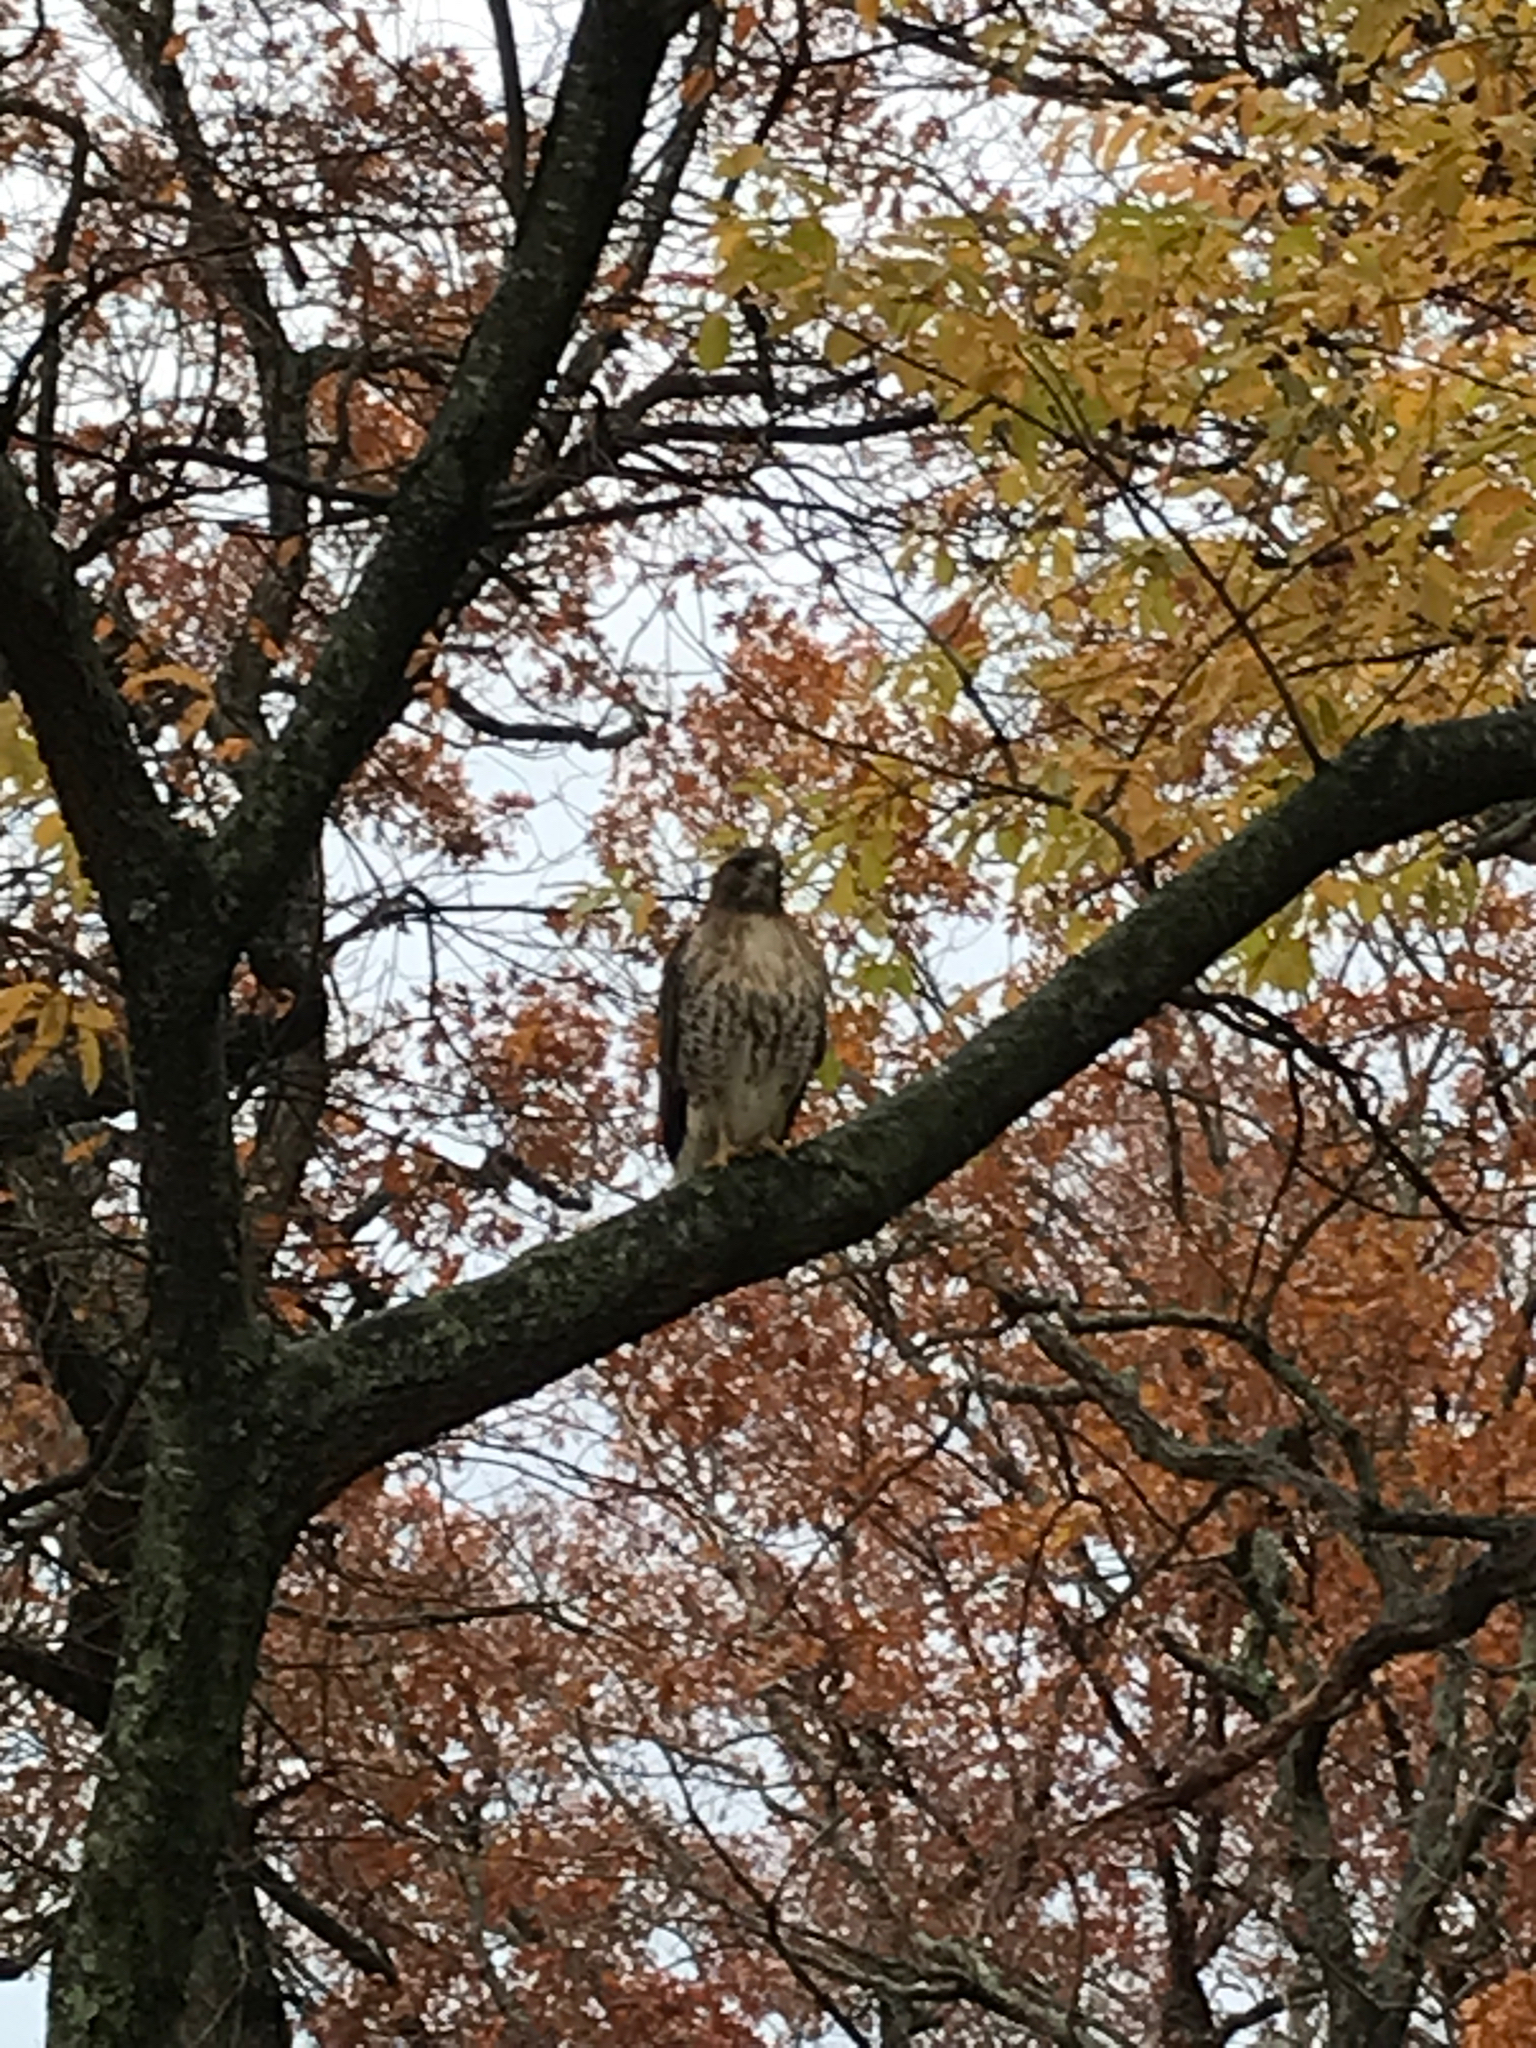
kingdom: Animalia
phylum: Chordata
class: Aves
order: Accipitriformes
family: Accipitridae
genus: Buteo
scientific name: Buteo jamaicensis
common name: Red-tailed hawk
